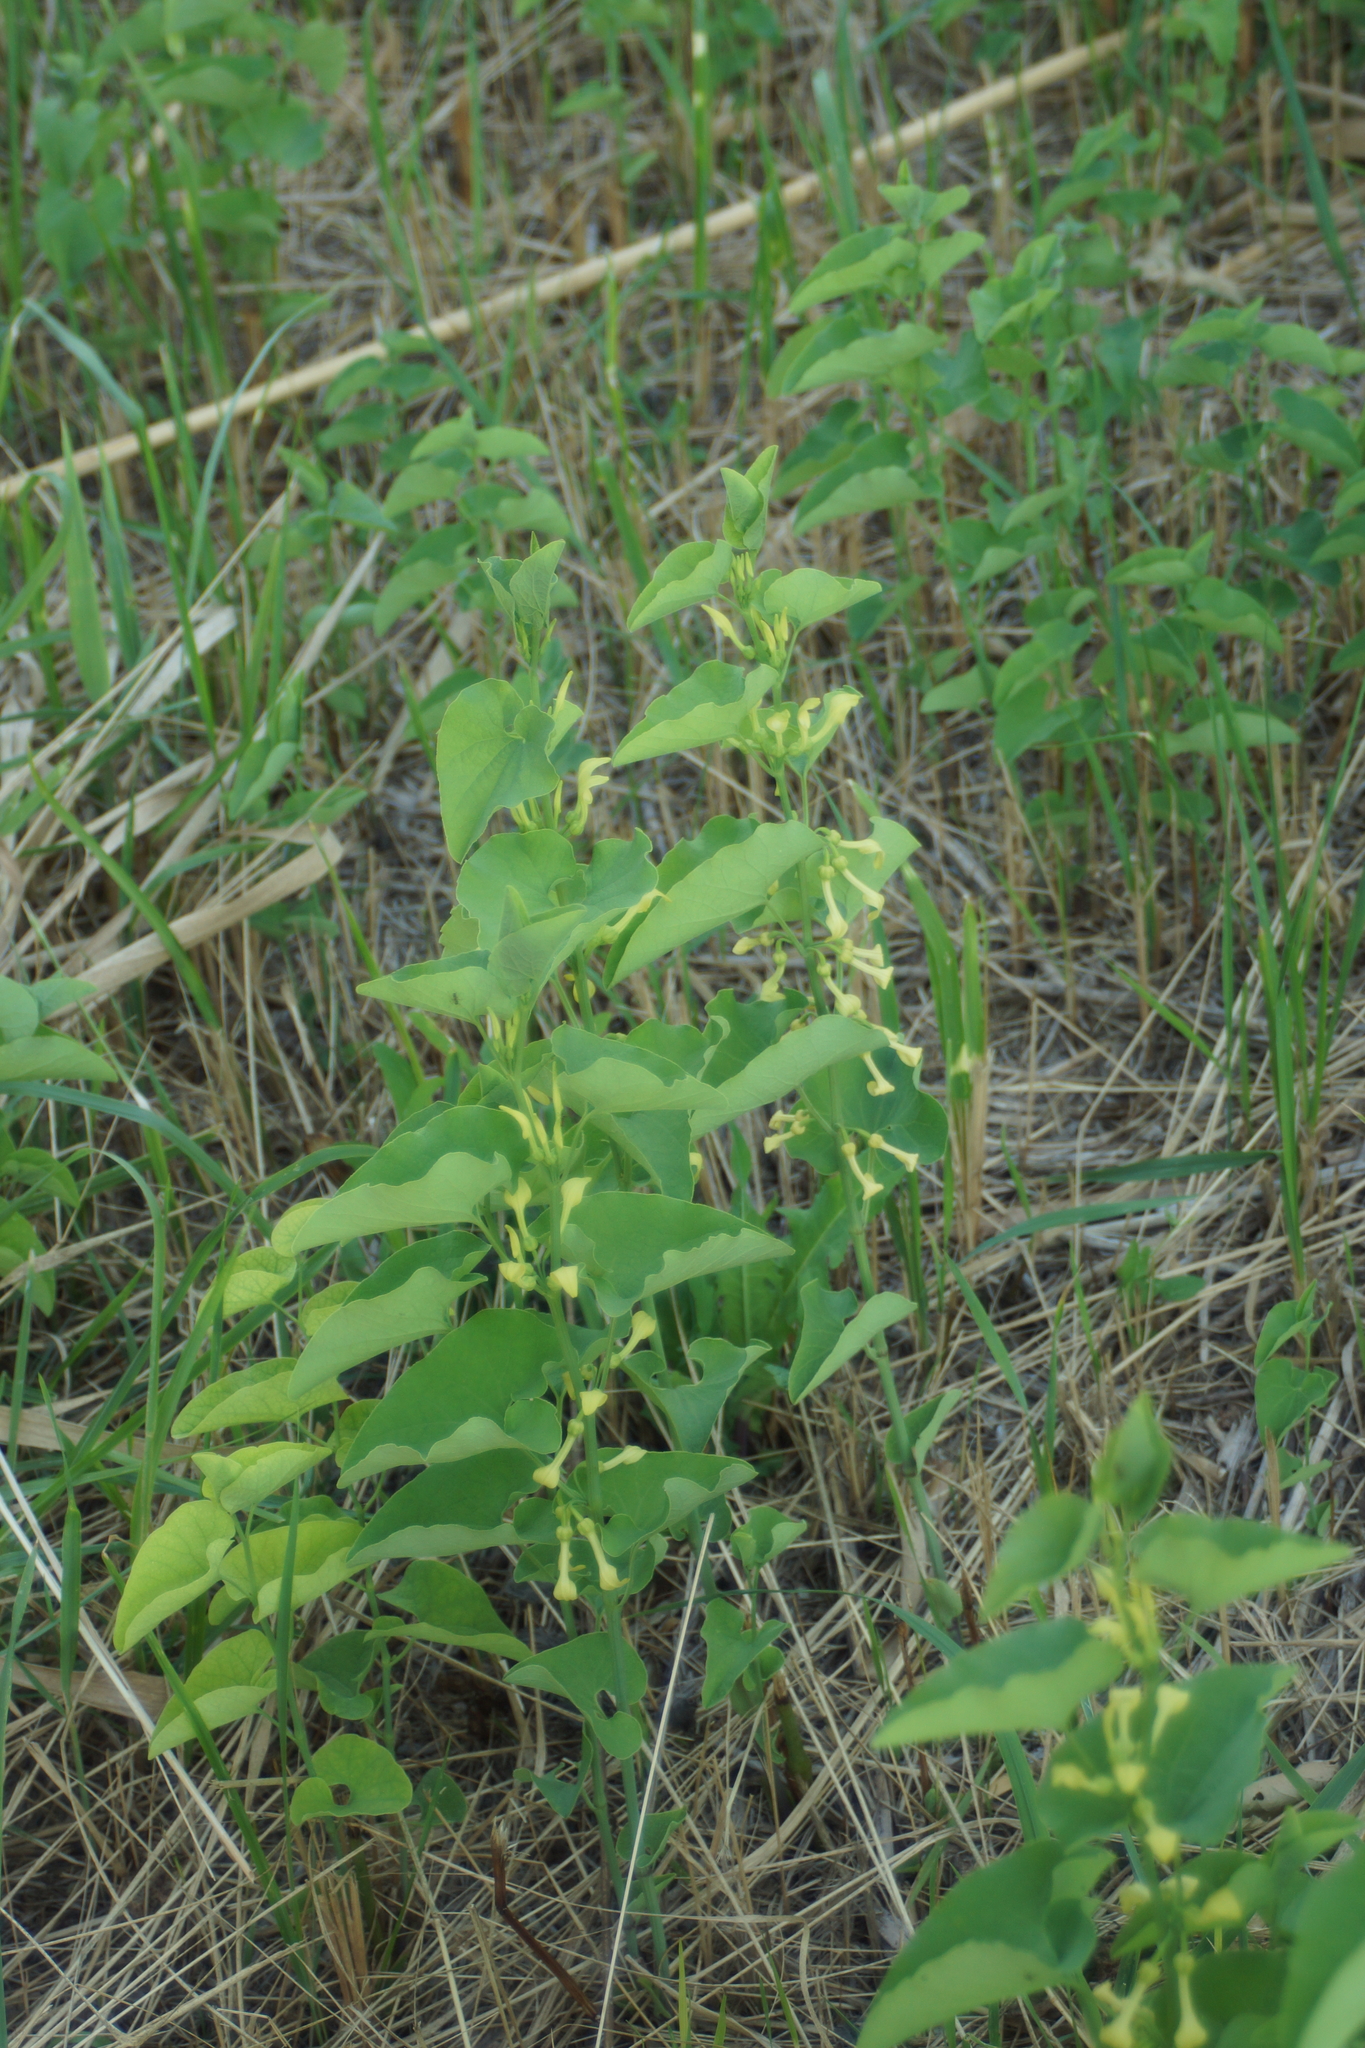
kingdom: Plantae
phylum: Tracheophyta
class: Magnoliopsida
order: Piperales
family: Aristolochiaceae
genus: Aristolochia
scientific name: Aristolochia clematitis
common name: Birthwort
